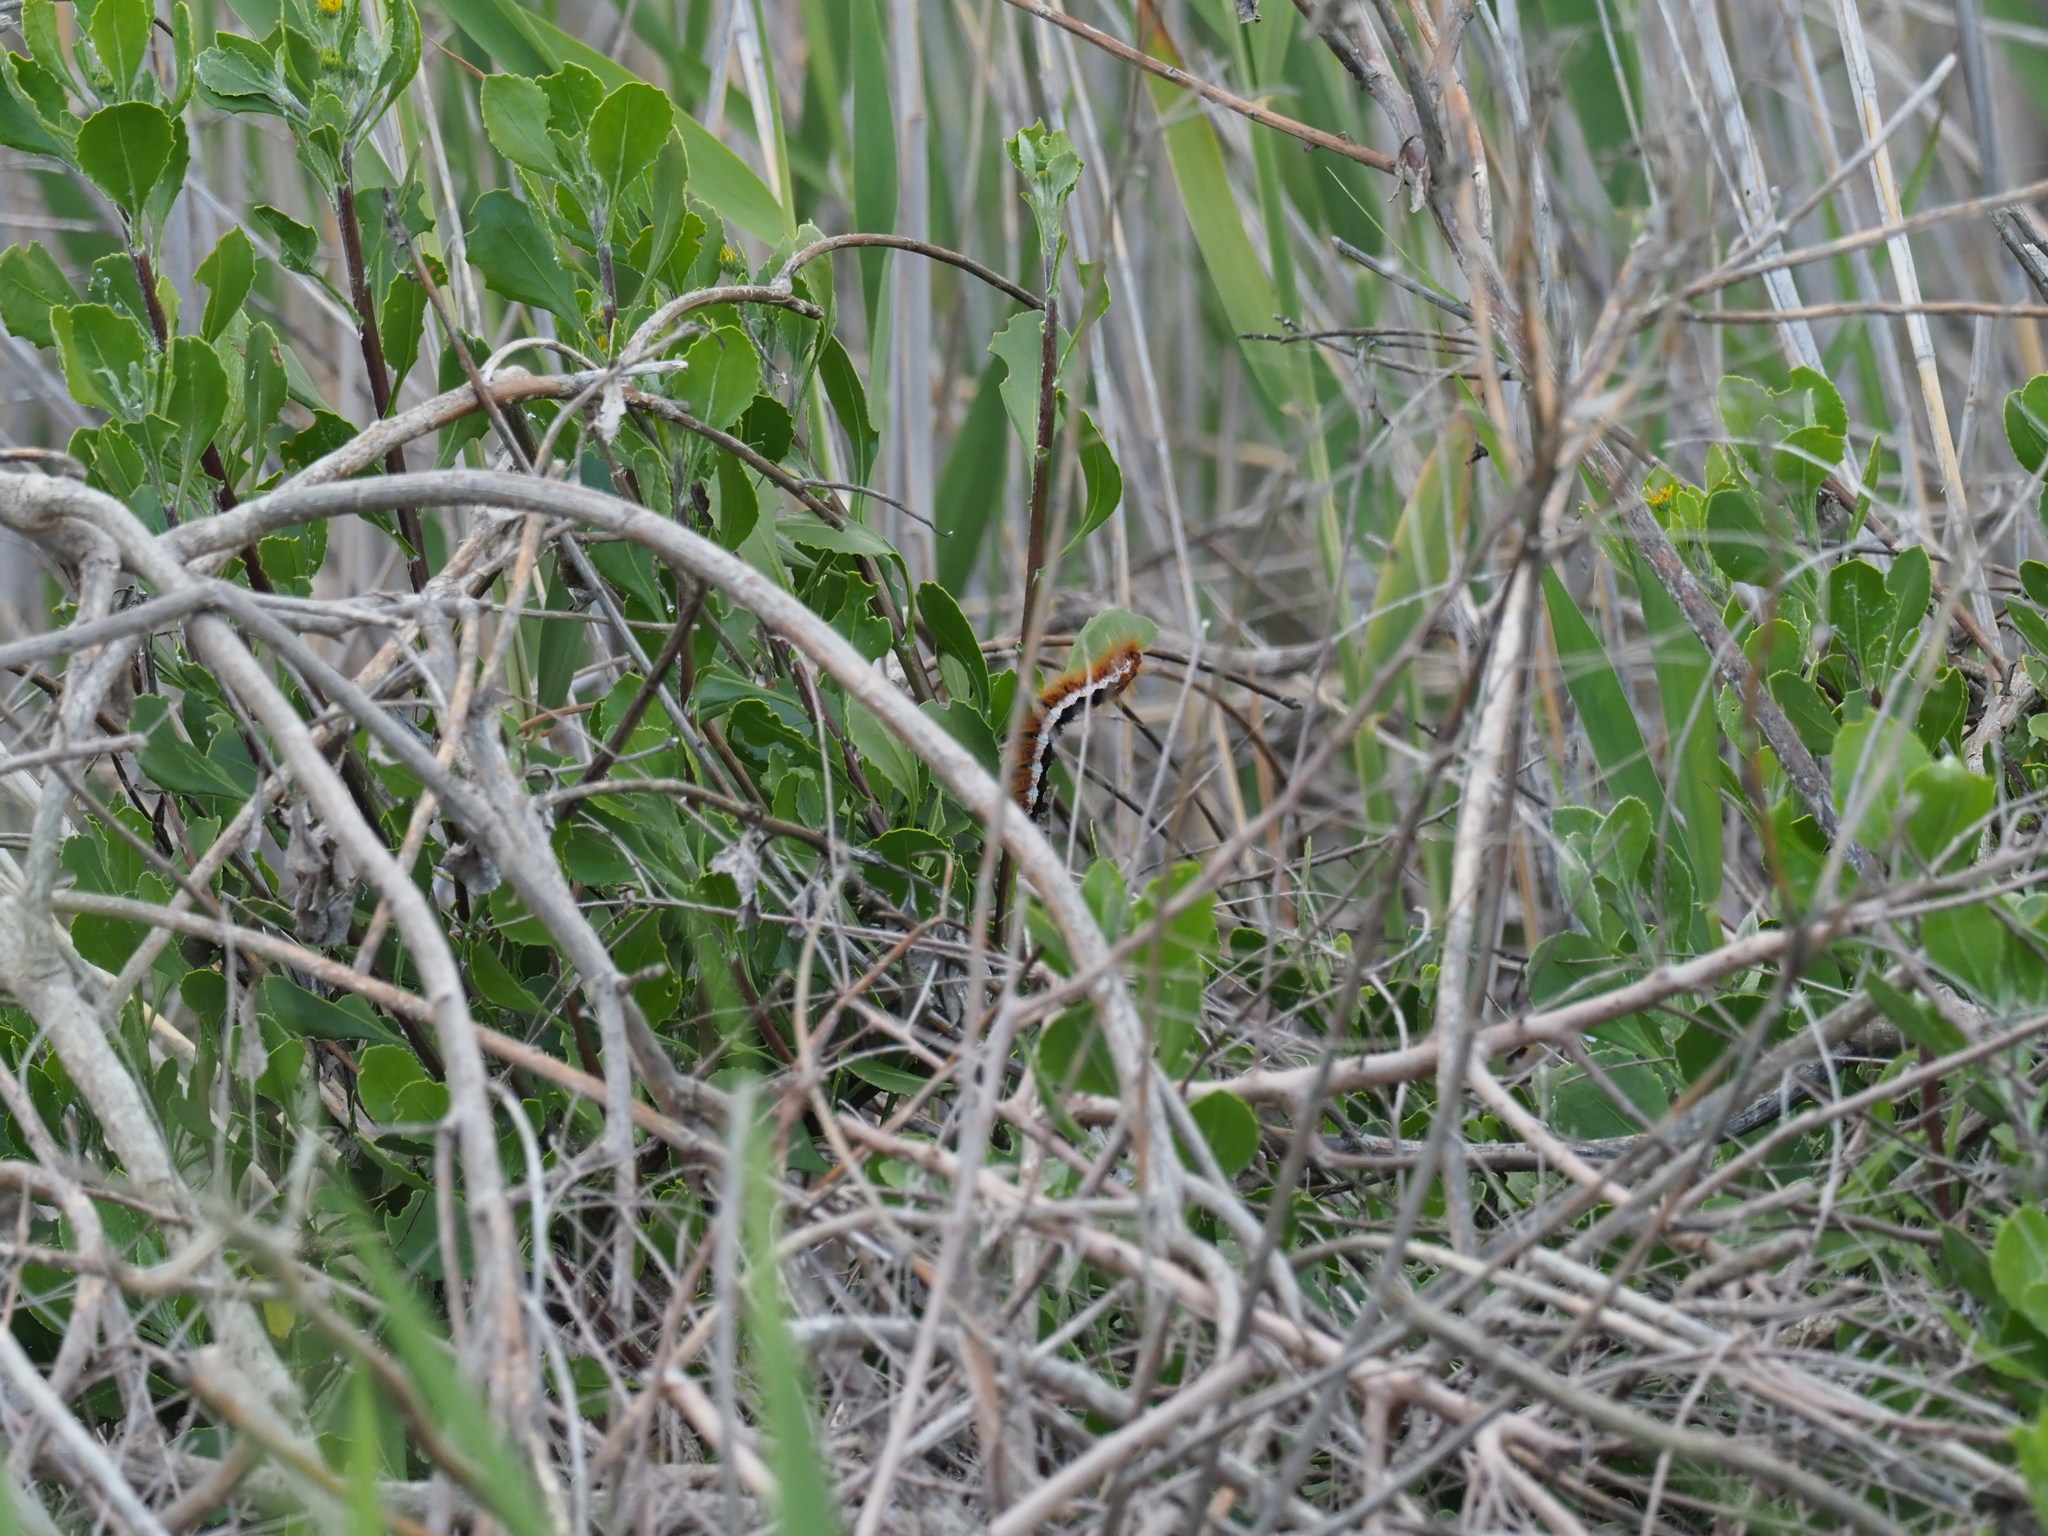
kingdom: Animalia
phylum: Arthropoda
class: Insecta
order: Lepidoptera
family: Lasiocampidae
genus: Eutricha
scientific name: Eutricha capensis
